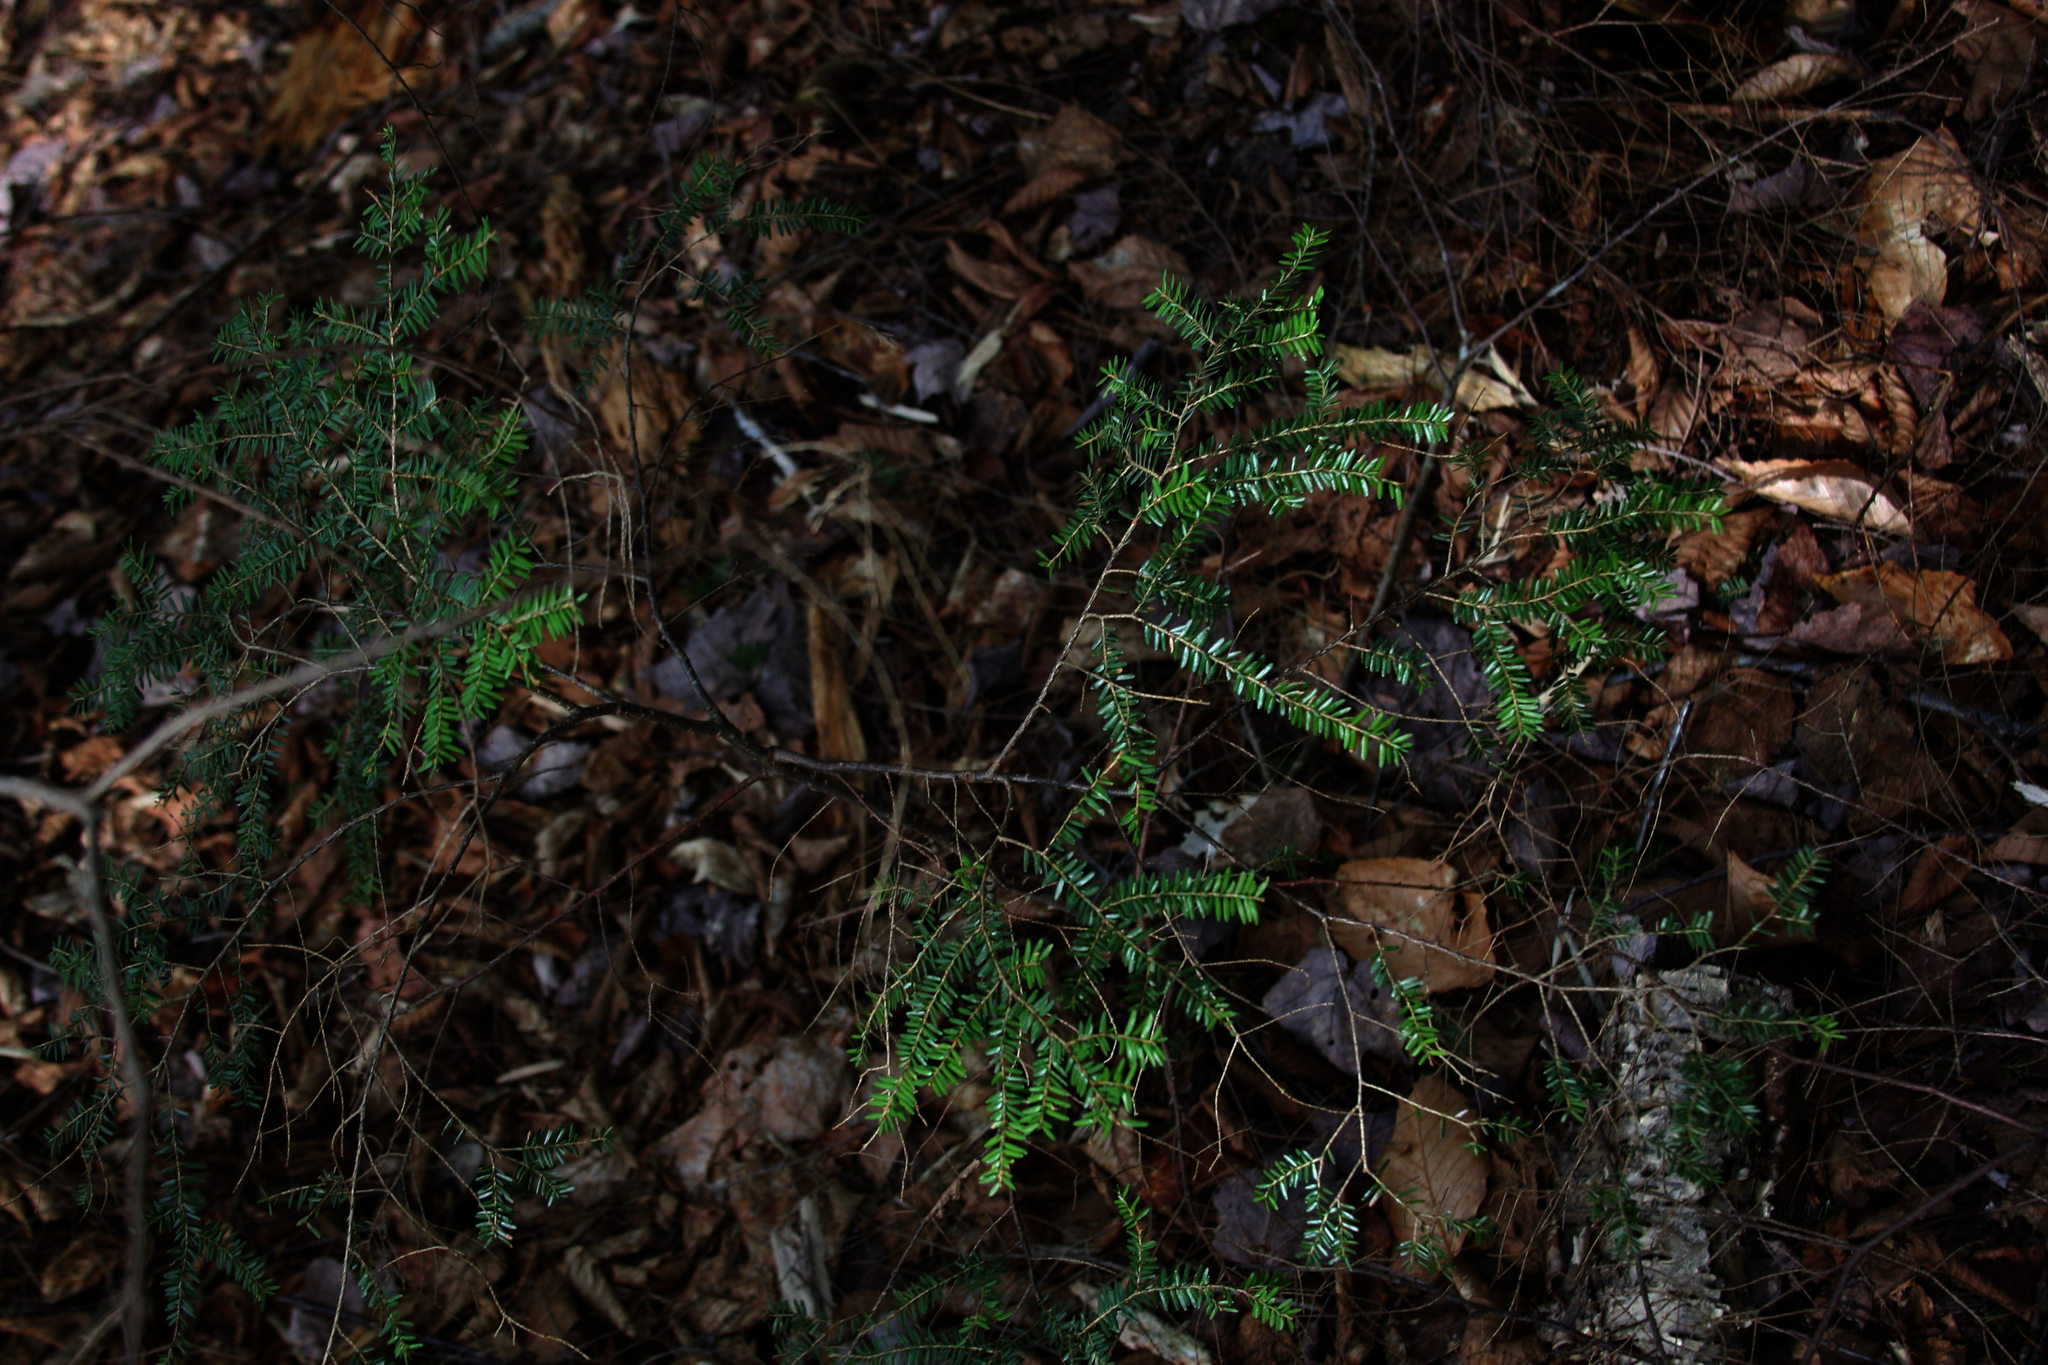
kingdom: Plantae
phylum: Tracheophyta
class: Pinopsida
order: Pinales
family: Pinaceae
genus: Tsuga
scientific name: Tsuga canadensis
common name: Eastern hemlock
